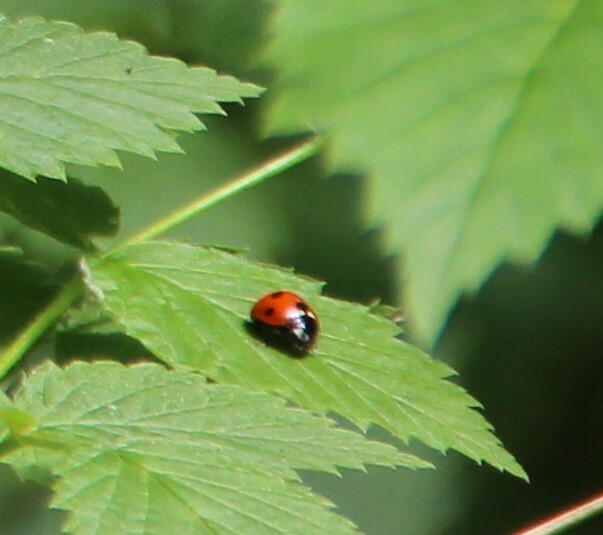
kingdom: Animalia
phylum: Arthropoda
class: Insecta
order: Coleoptera
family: Coccinellidae
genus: Coccinella
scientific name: Coccinella septempunctata
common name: Sevenspotted lady beetle
